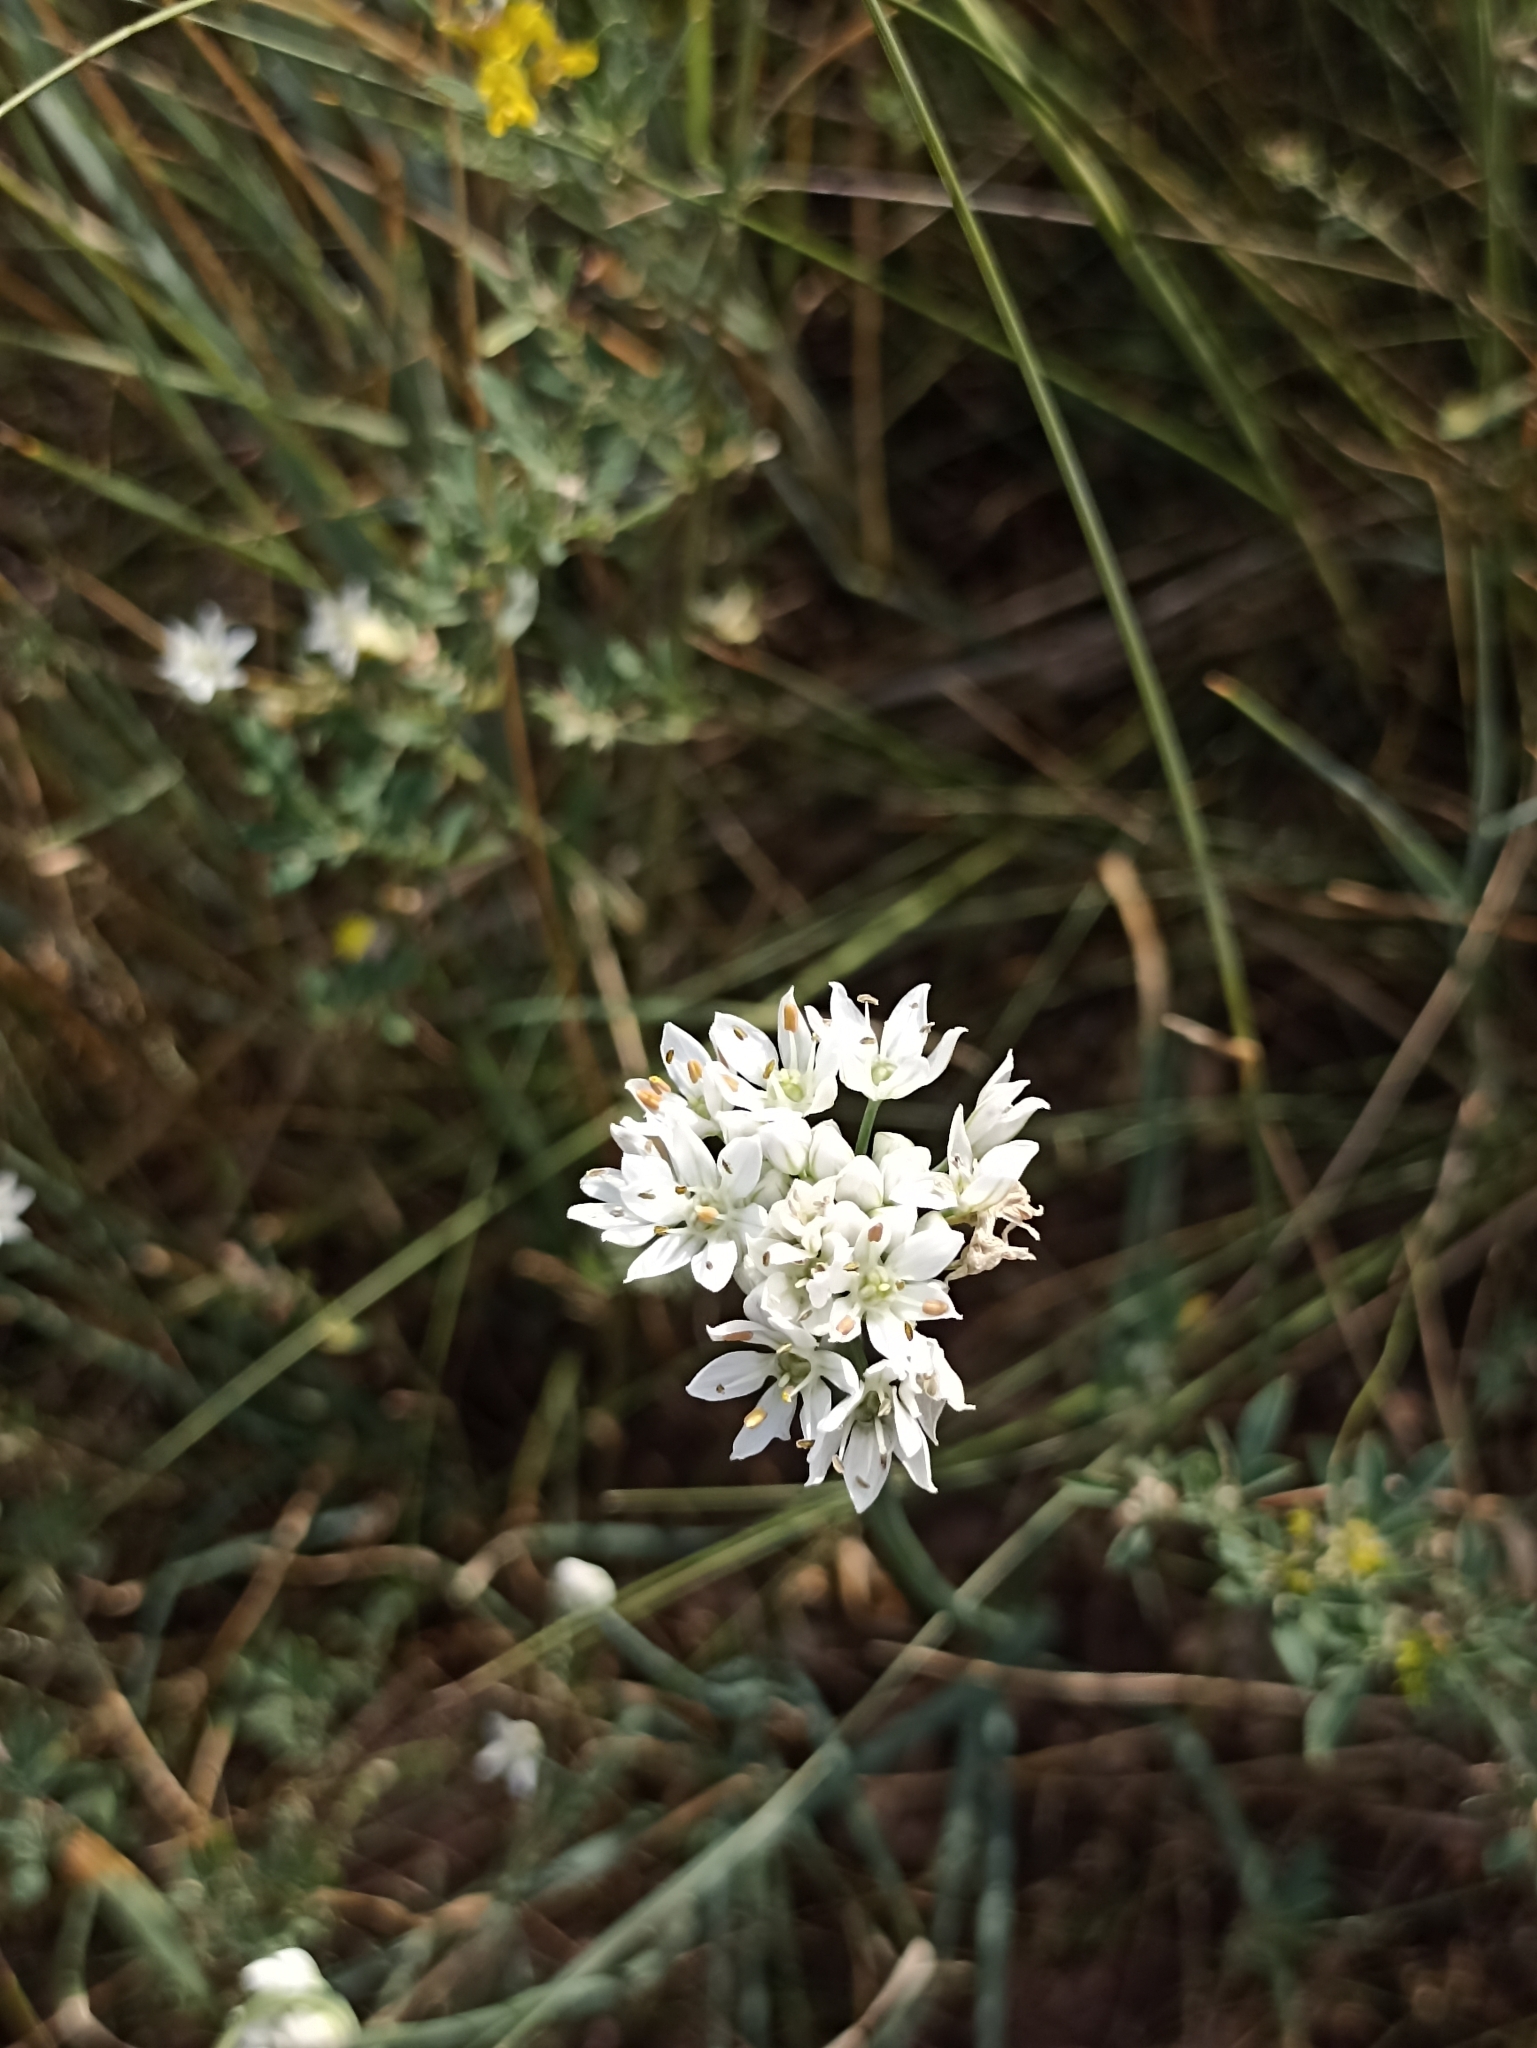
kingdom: Plantae
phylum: Tracheophyta
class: Liliopsida
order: Asparagales
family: Amaryllidaceae
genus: Allium
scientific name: Allium ramosum
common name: Fragrant garlic
